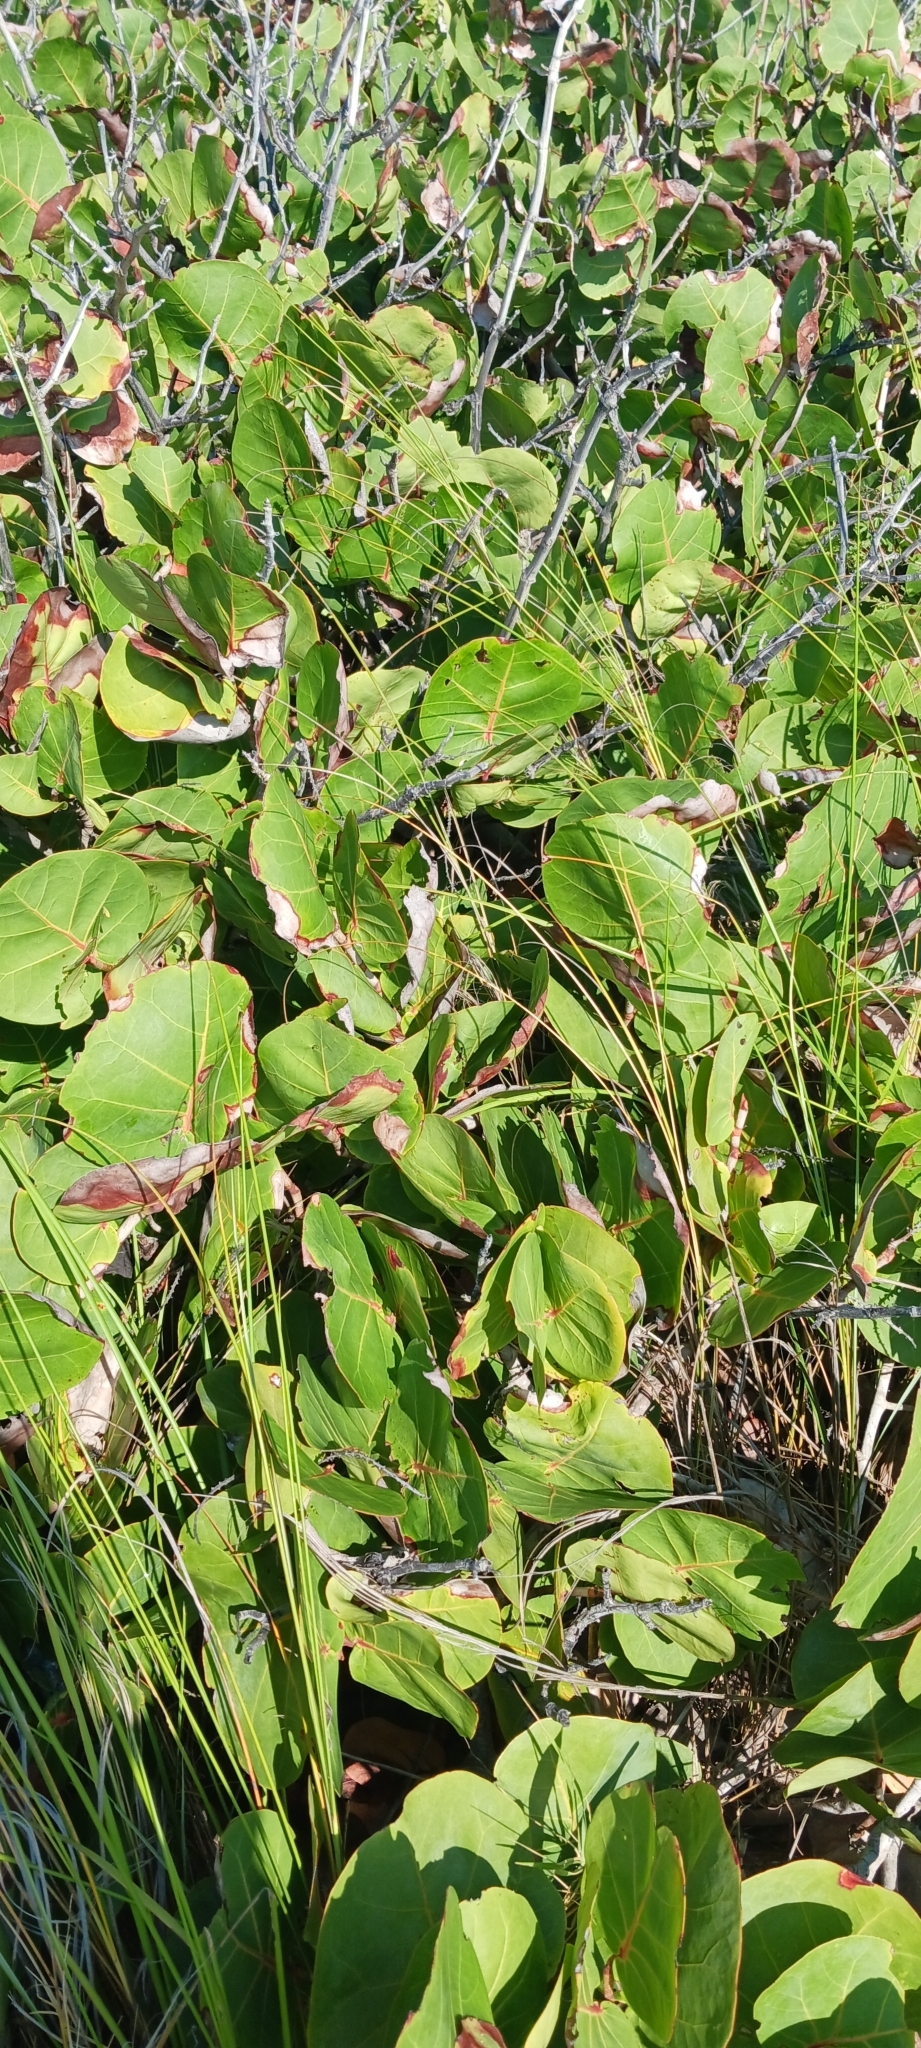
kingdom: Plantae
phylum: Tracheophyta
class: Magnoliopsida
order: Caryophyllales
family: Polygonaceae
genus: Coccoloba
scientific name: Coccoloba uvifera
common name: Seagrape
